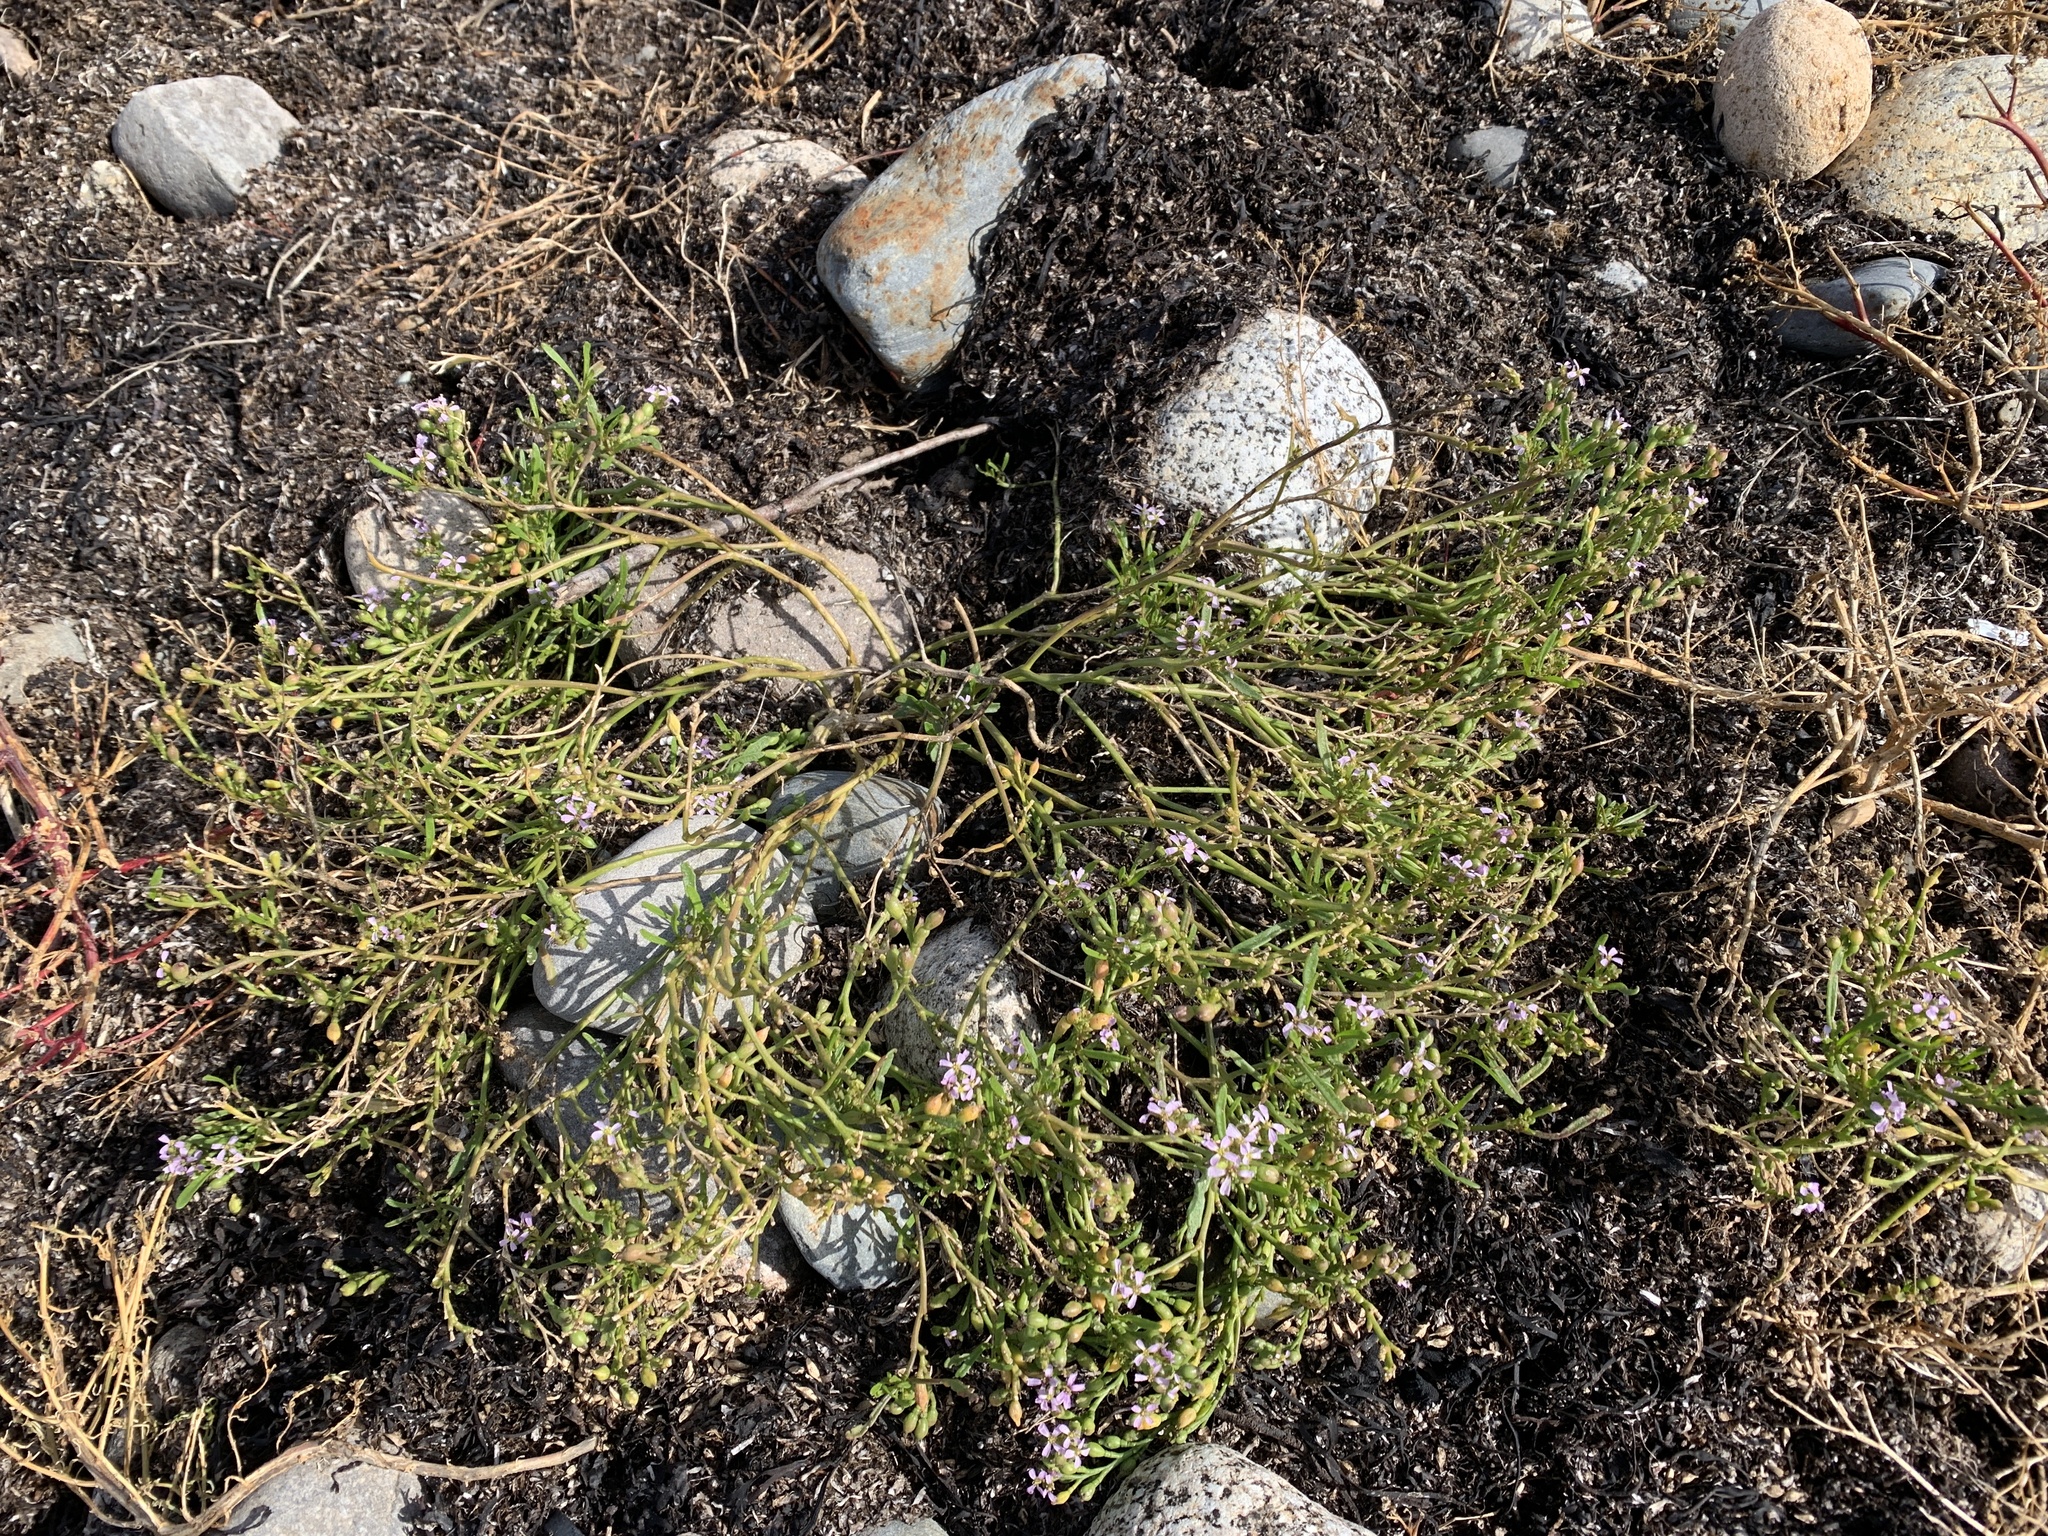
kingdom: Plantae
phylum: Tracheophyta
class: Magnoliopsida
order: Brassicales
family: Brassicaceae
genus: Cakile
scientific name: Cakile edentula
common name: American sea rocket
